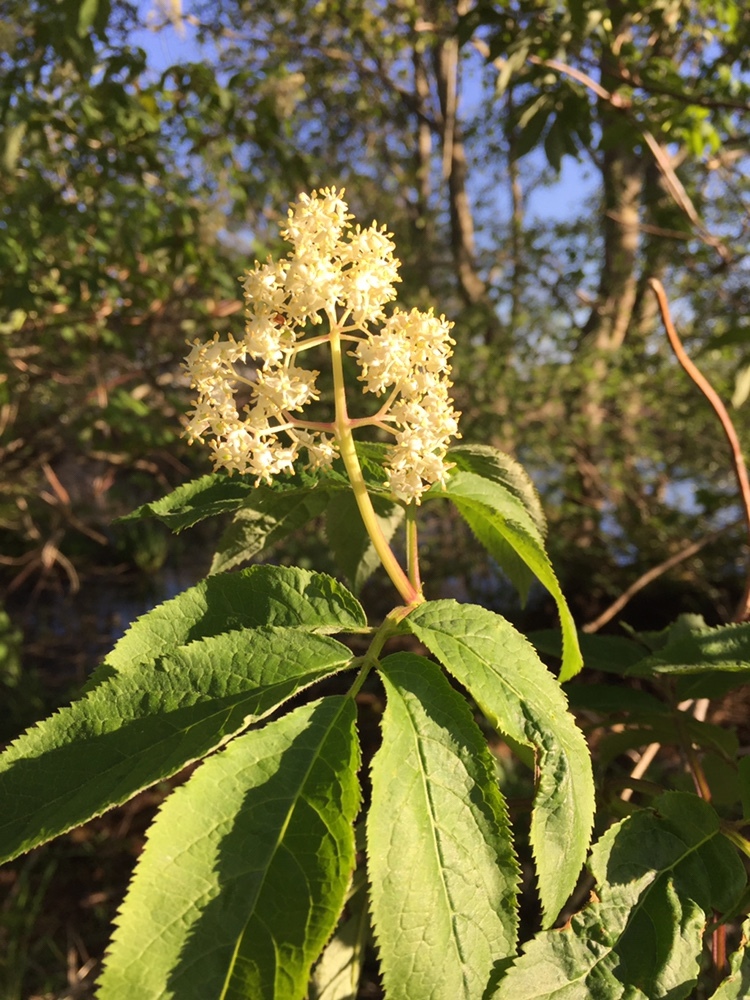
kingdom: Plantae
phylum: Tracheophyta
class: Magnoliopsida
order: Dipsacales
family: Viburnaceae
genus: Sambucus
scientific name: Sambucus racemosa
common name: Red-berried elder
